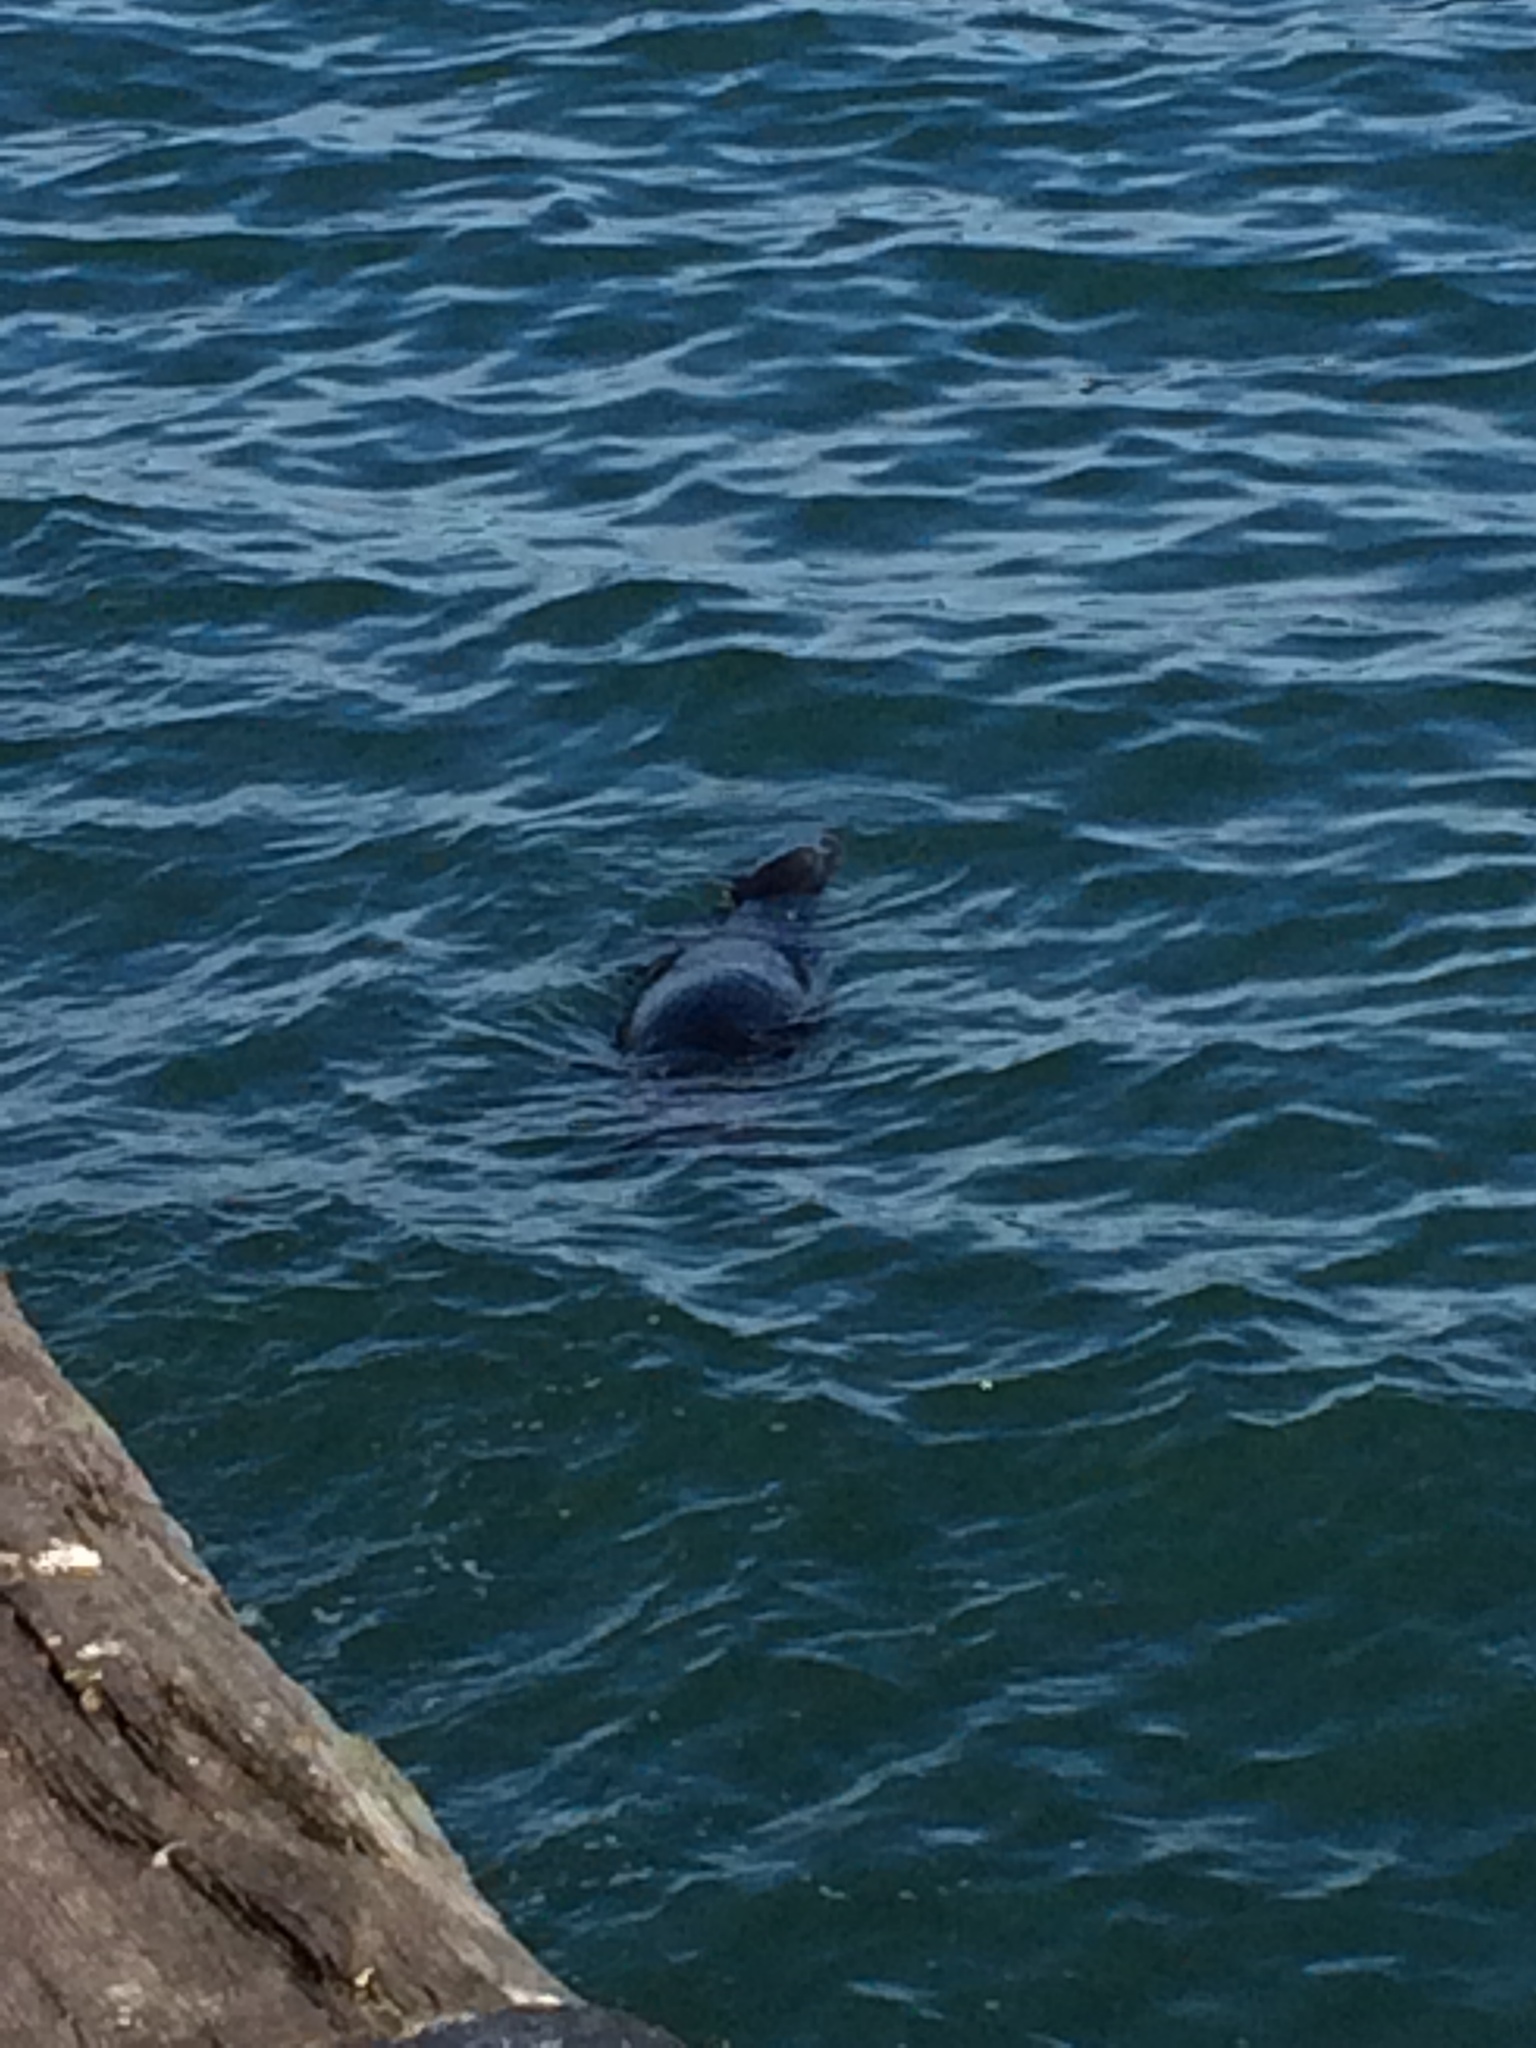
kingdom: Animalia
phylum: Chordata
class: Mammalia
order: Carnivora
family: Otariidae
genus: Zalophus
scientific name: Zalophus californianus
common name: California sea lion
